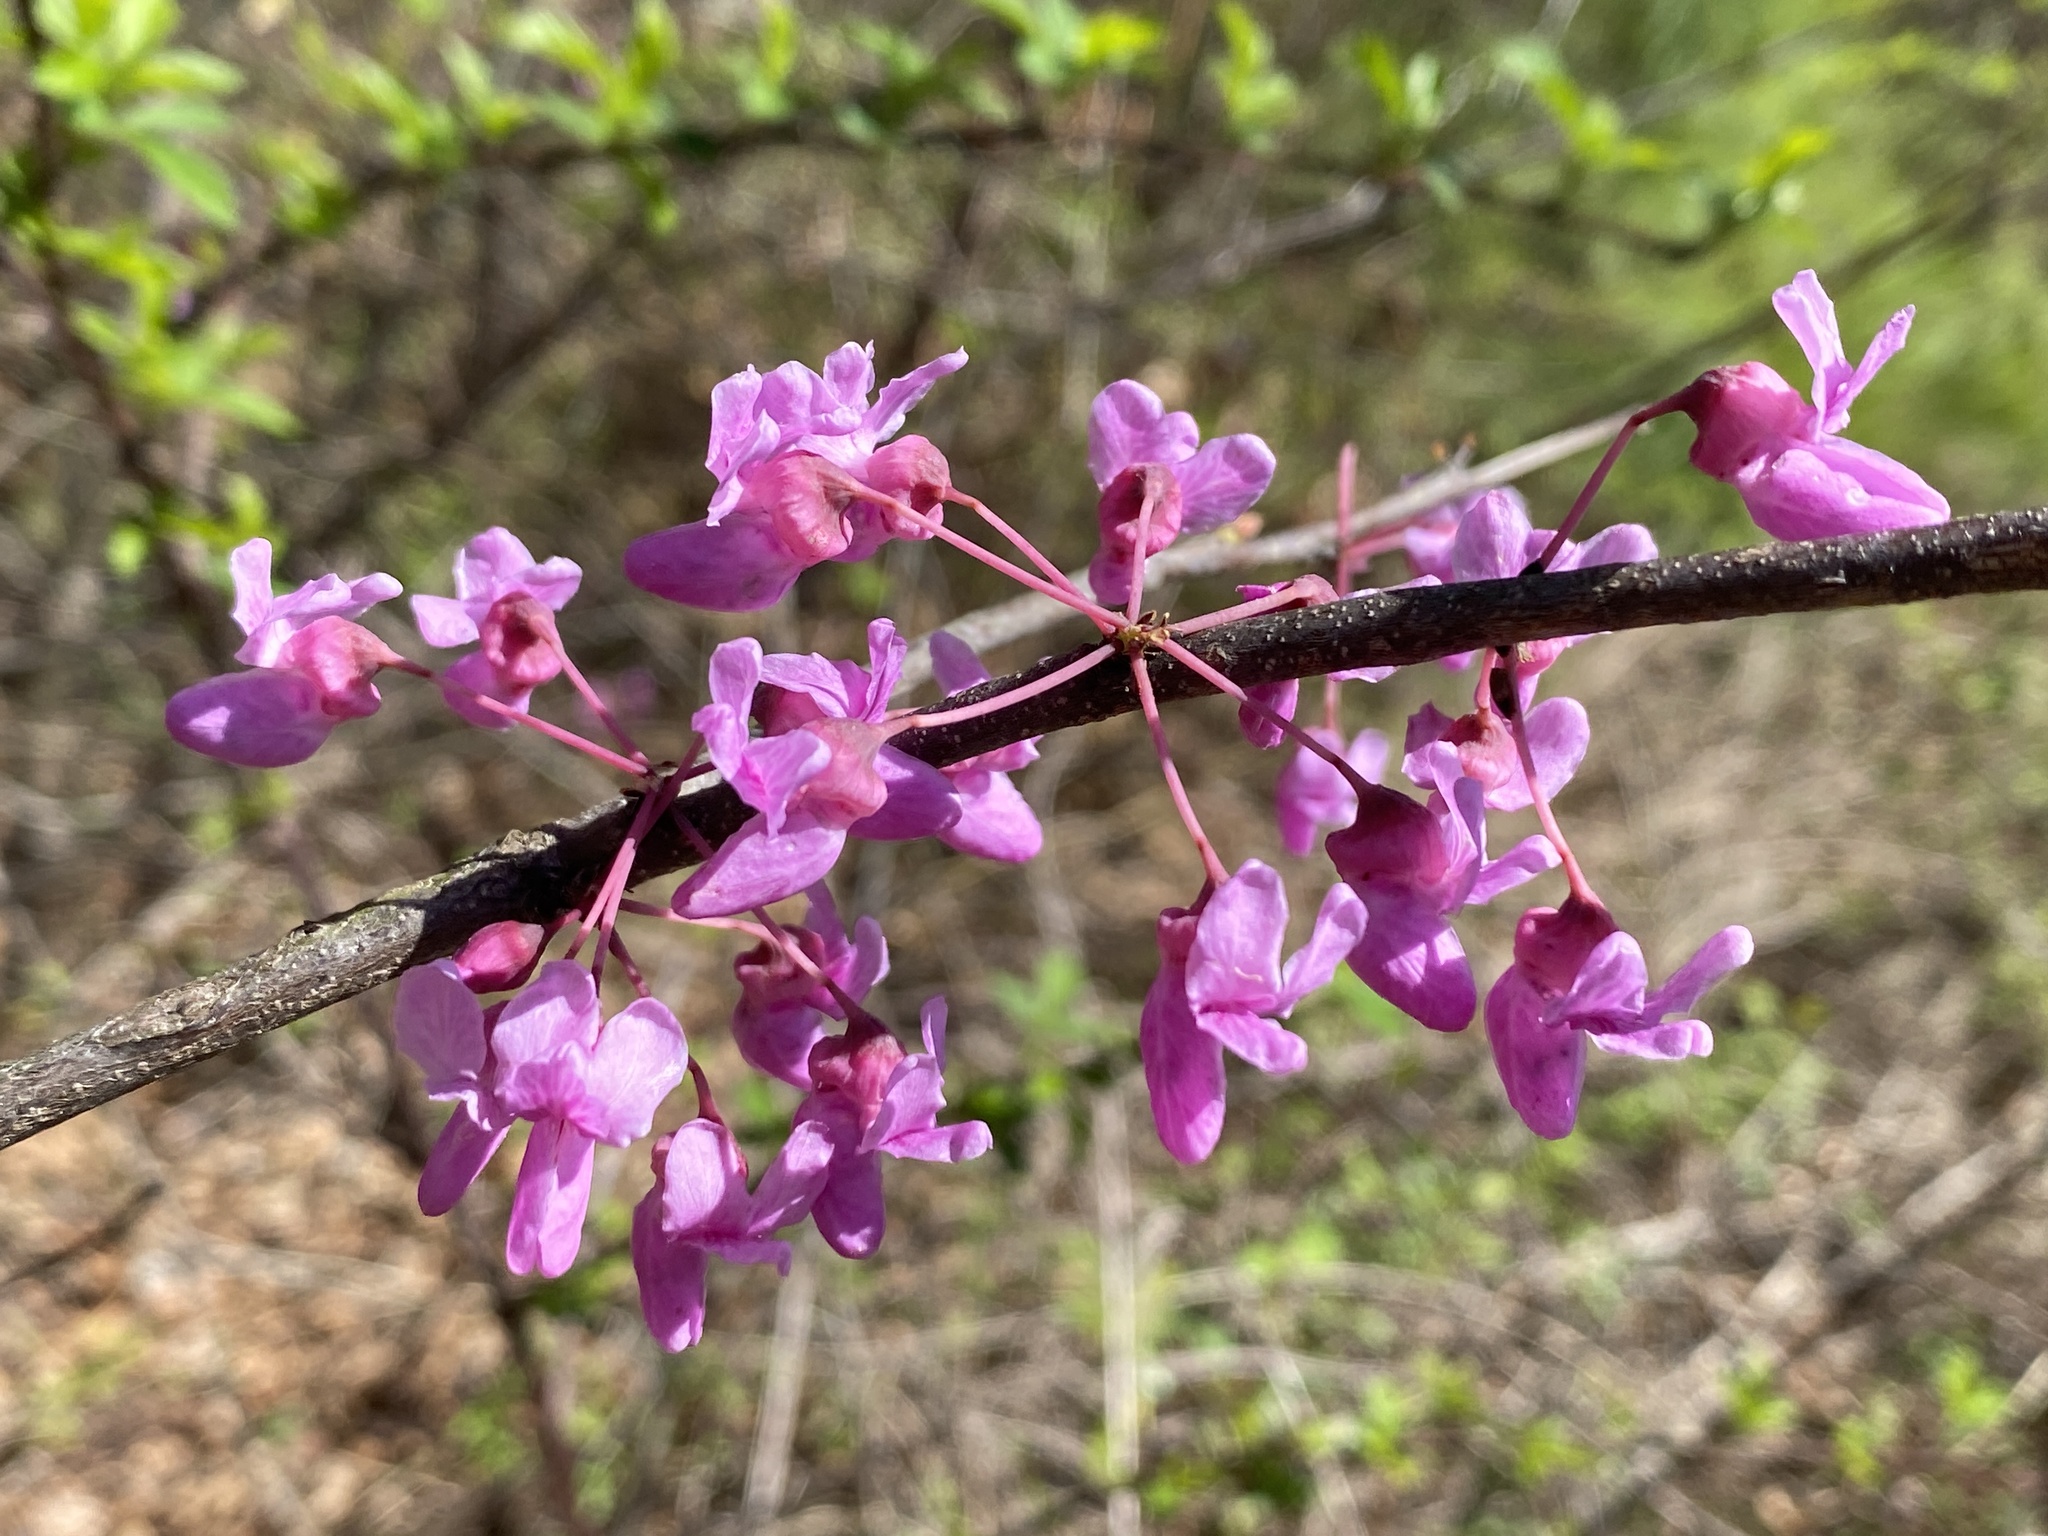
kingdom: Plantae
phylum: Tracheophyta
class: Magnoliopsida
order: Fabales
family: Fabaceae
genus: Cercis
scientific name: Cercis canadensis
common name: Eastern redbud
